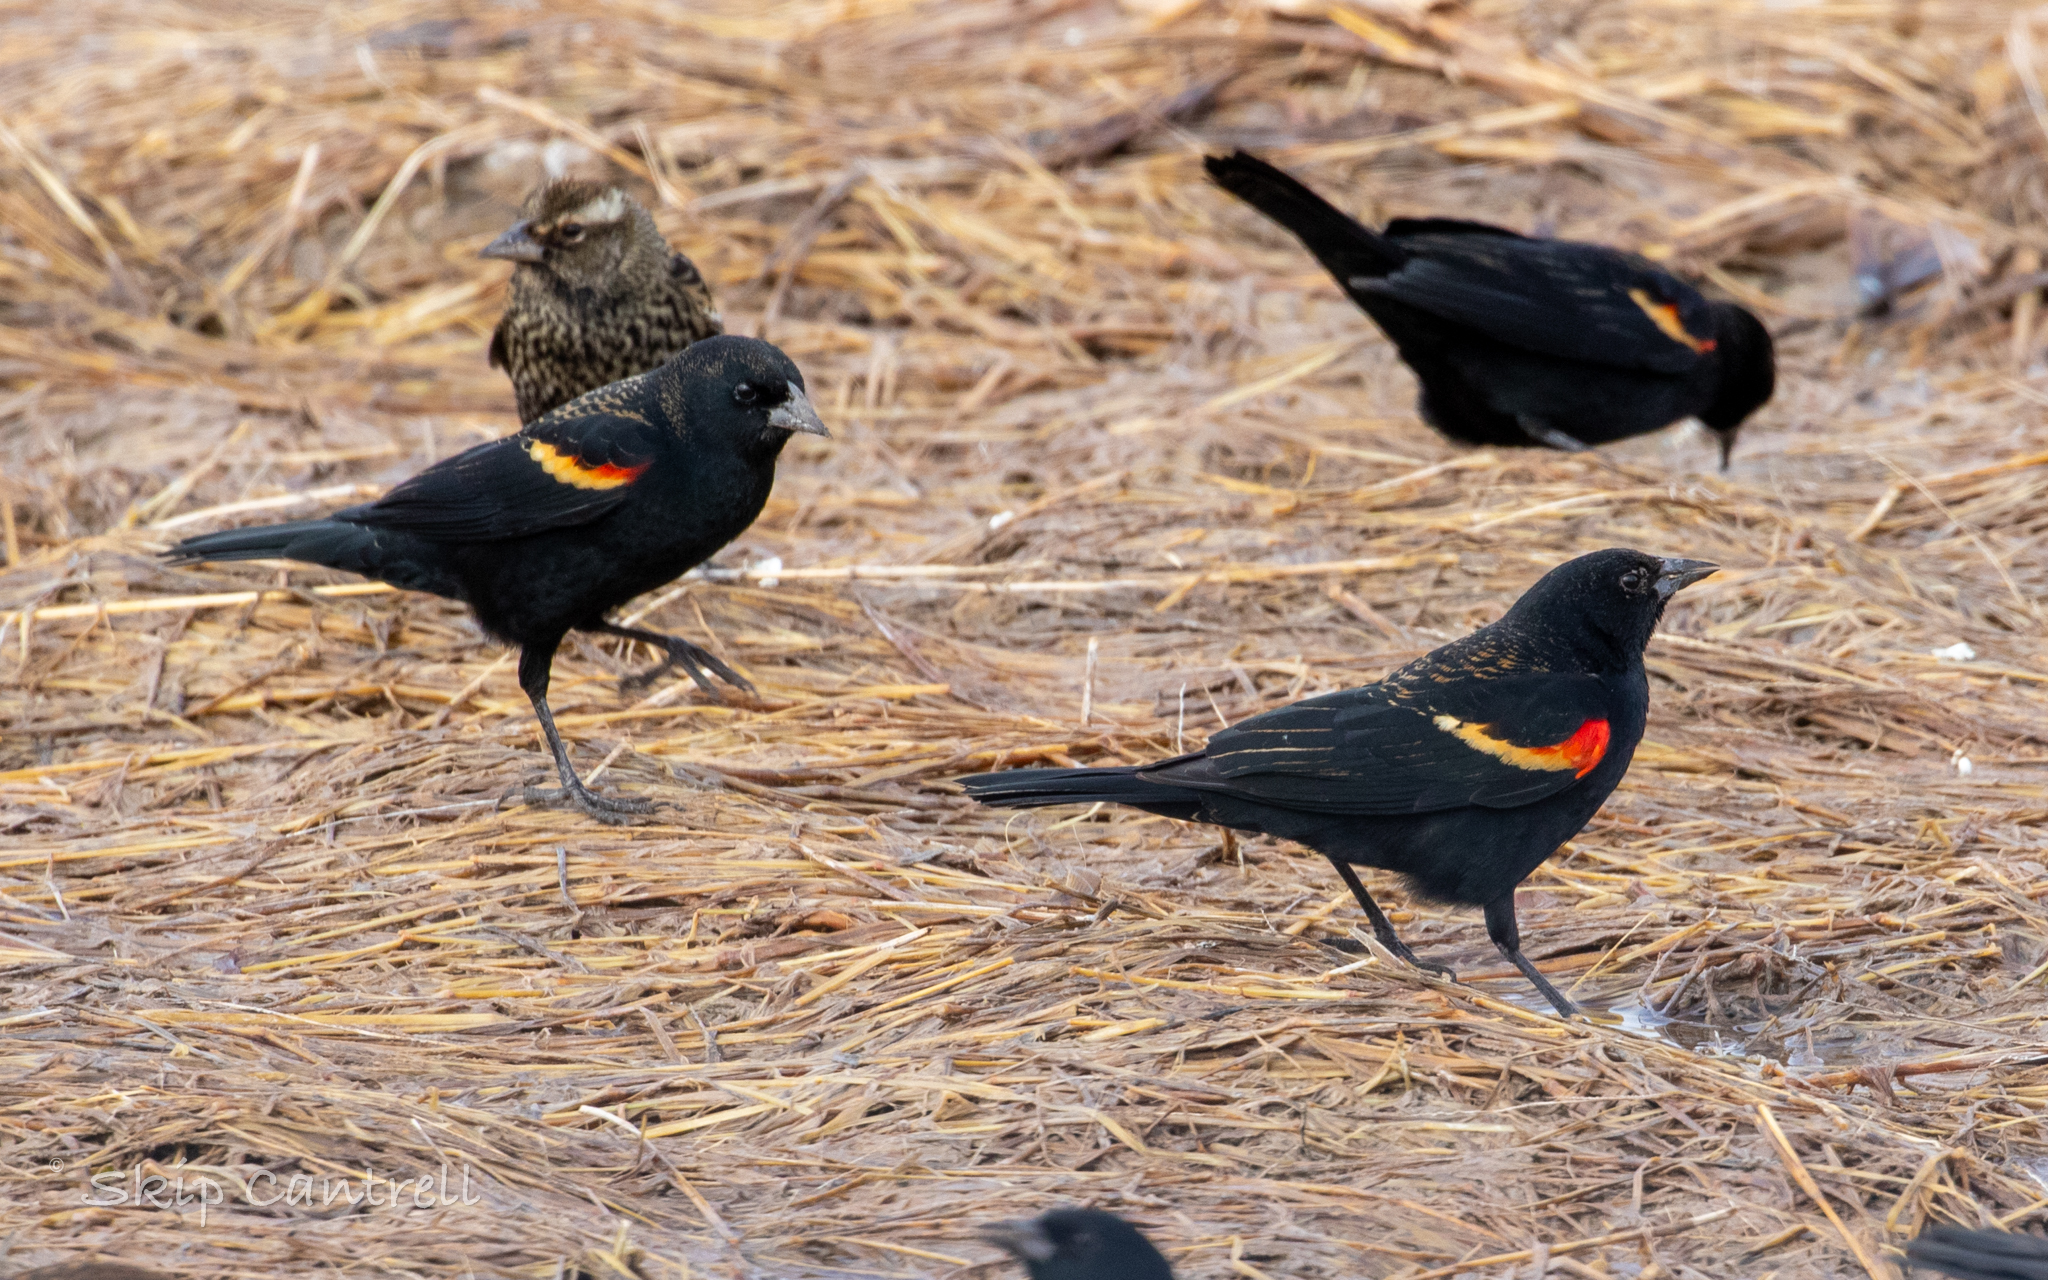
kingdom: Animalia
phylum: Chordata
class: Aves
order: Passeriformes
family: Icteridae
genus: Agelaius
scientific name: Agelaius phoeniceus
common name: Red-winged blackbird
